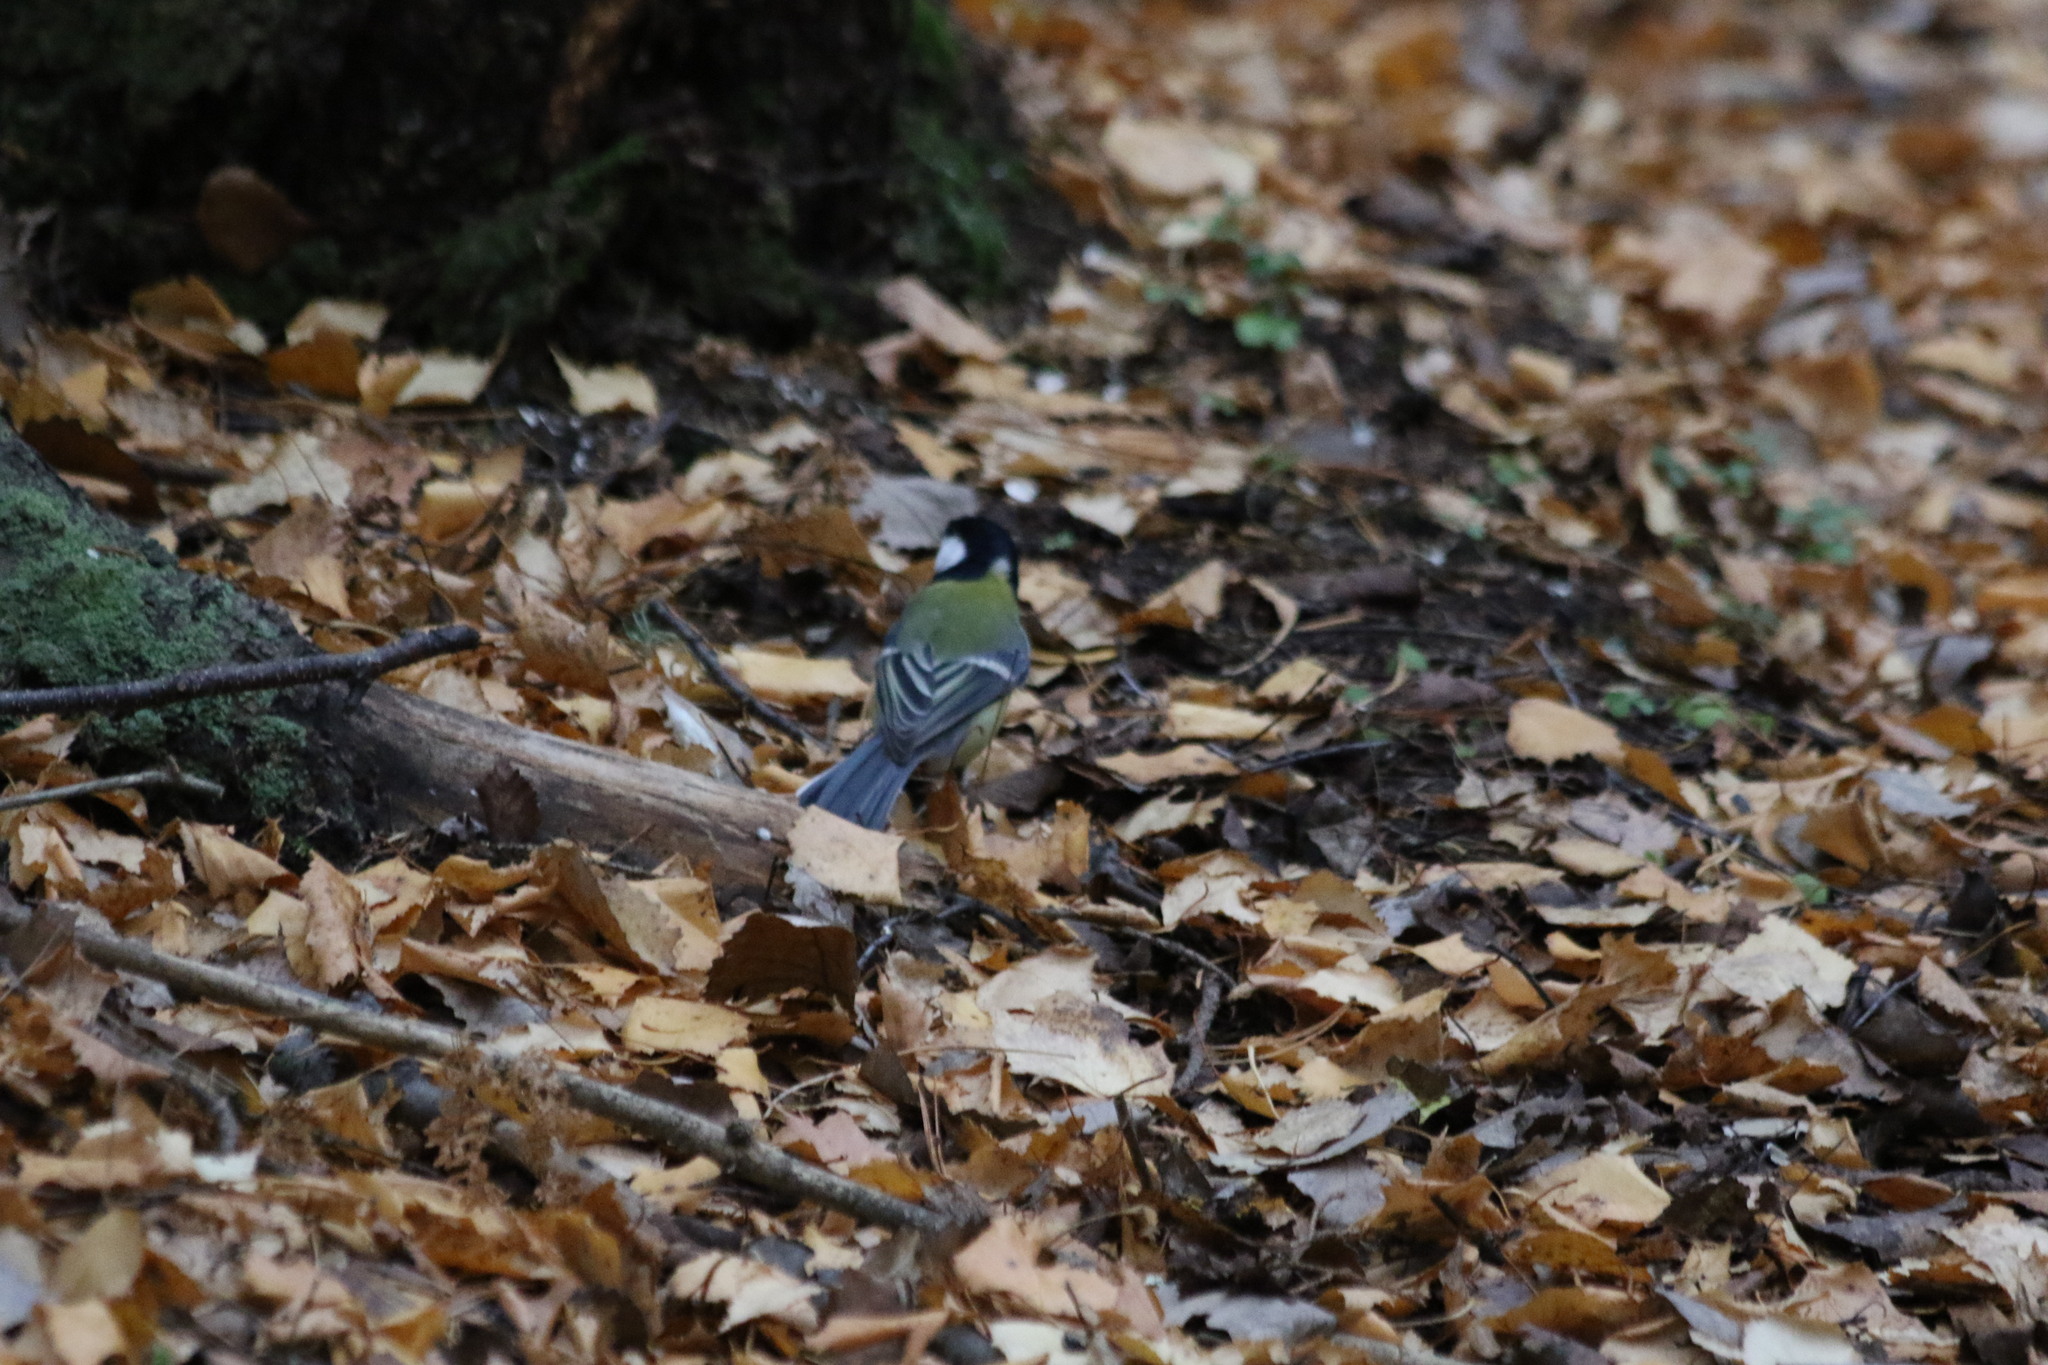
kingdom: Animalia
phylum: Chordata
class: Aves
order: Passeriformes
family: Paridae
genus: Parus
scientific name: Parus major
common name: Great tit
